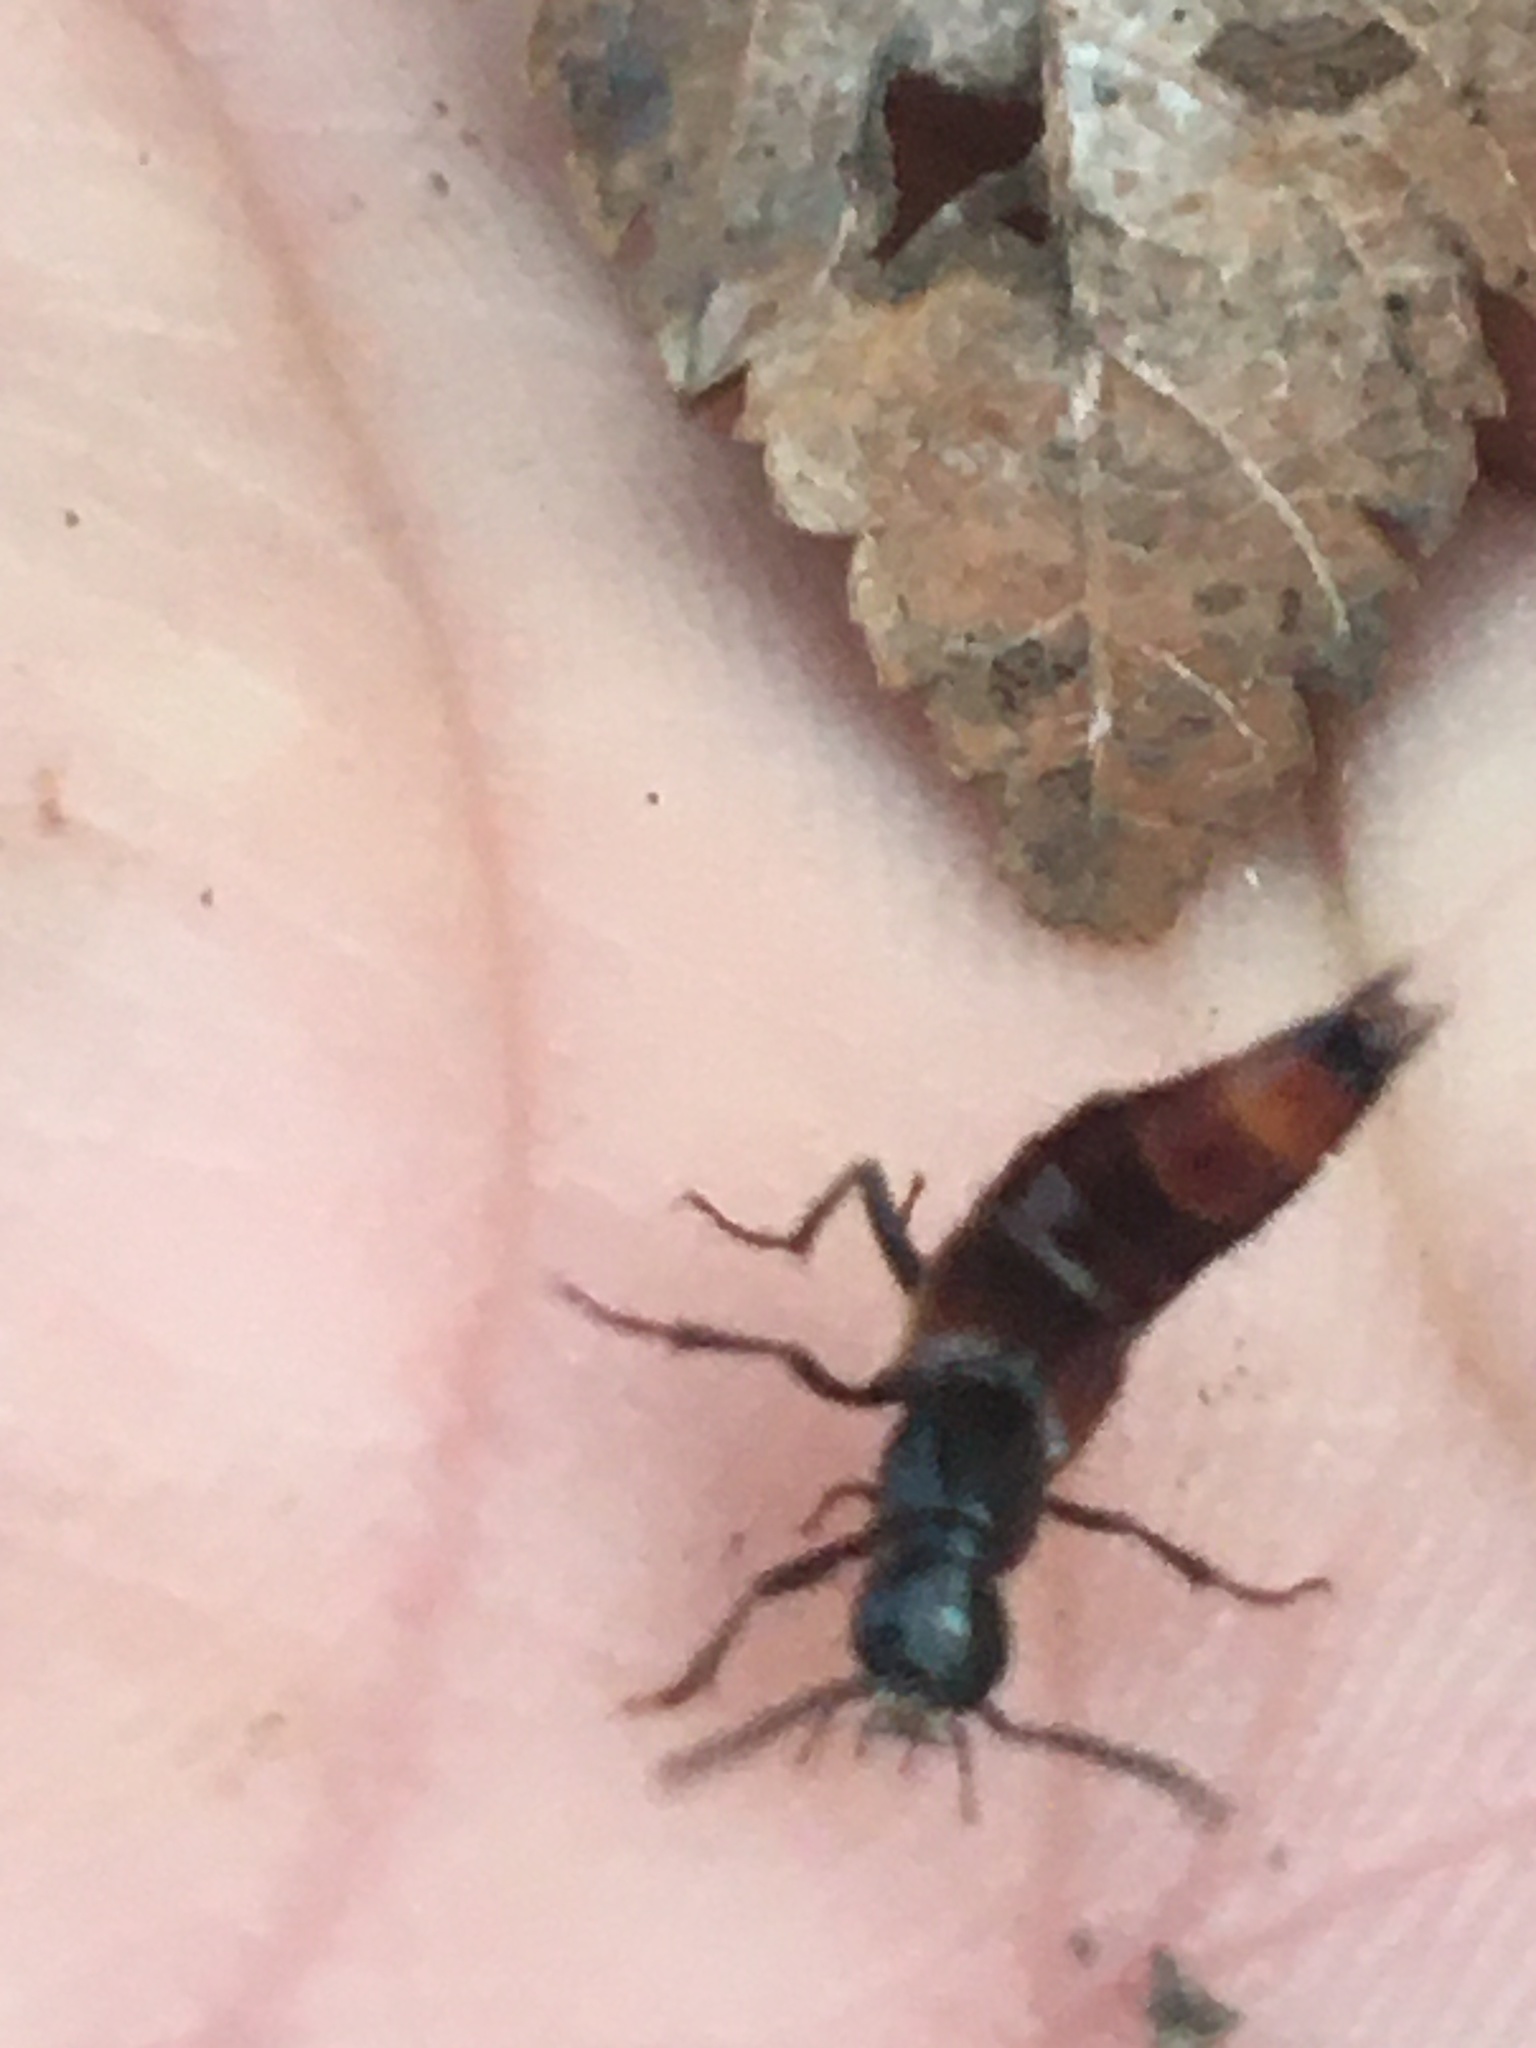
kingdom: Animalia
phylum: Arthropoda
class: Insecta
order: Coleoptera
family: Staphylinidae
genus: Hesperus
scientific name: Hesperus baltimorensis
